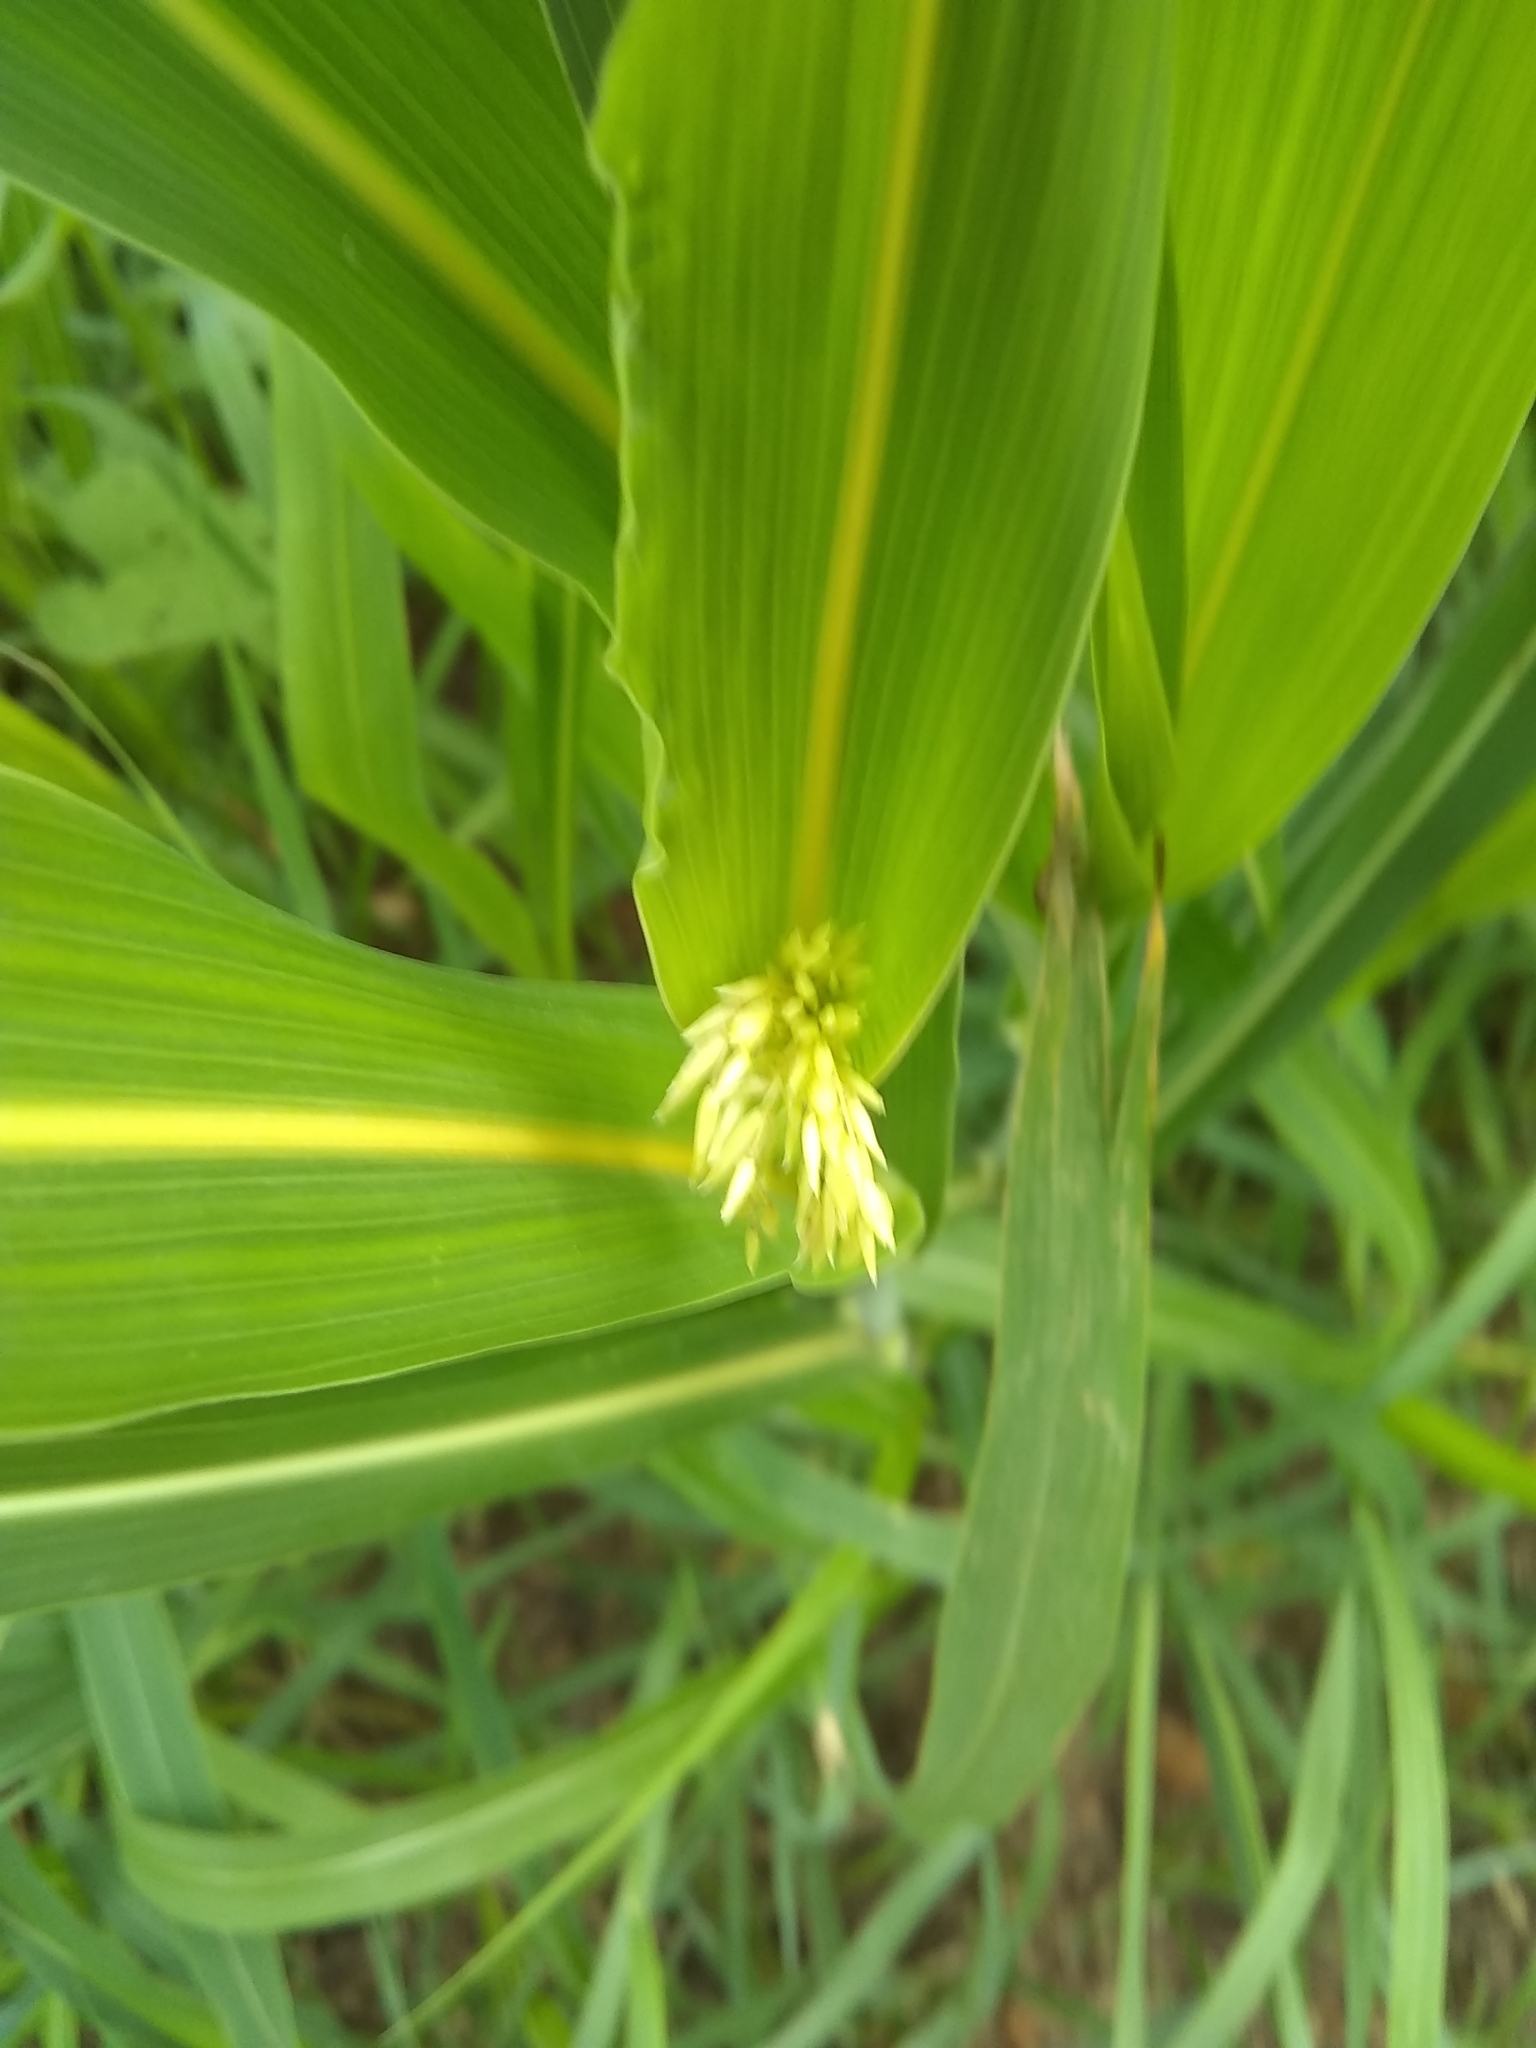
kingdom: Plantae
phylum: Tracheophyta
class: Liliopsida
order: Poales
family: Poaceae
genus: Sorghum
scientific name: Sorghum halepense
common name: Johnson-grass
